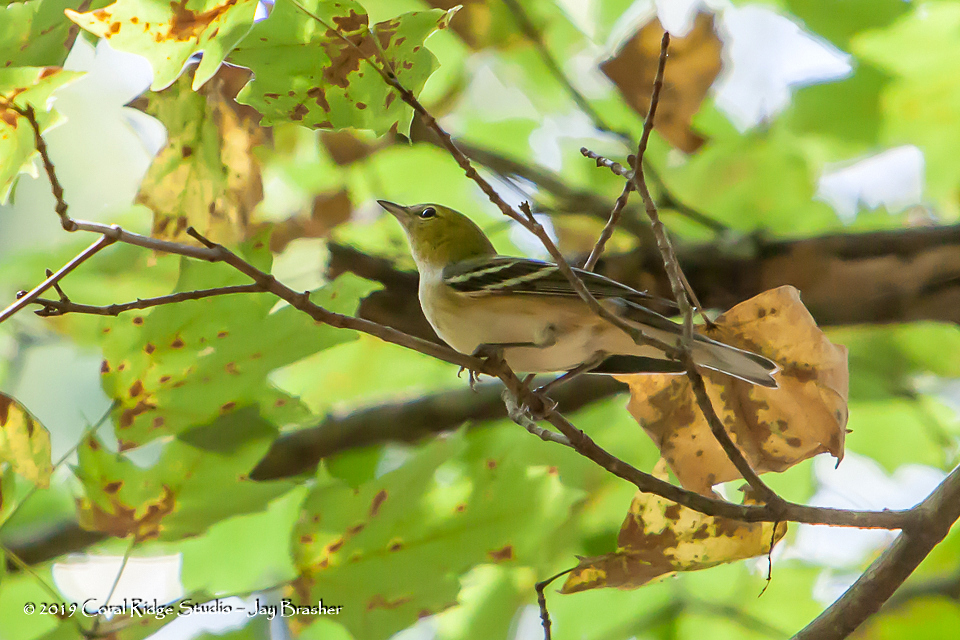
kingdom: Animalia
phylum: Chordata
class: Aves
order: Passeriformes
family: Parulidae
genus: Setophaga
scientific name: Setophaga castanea
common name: Bay-breasted warbler
